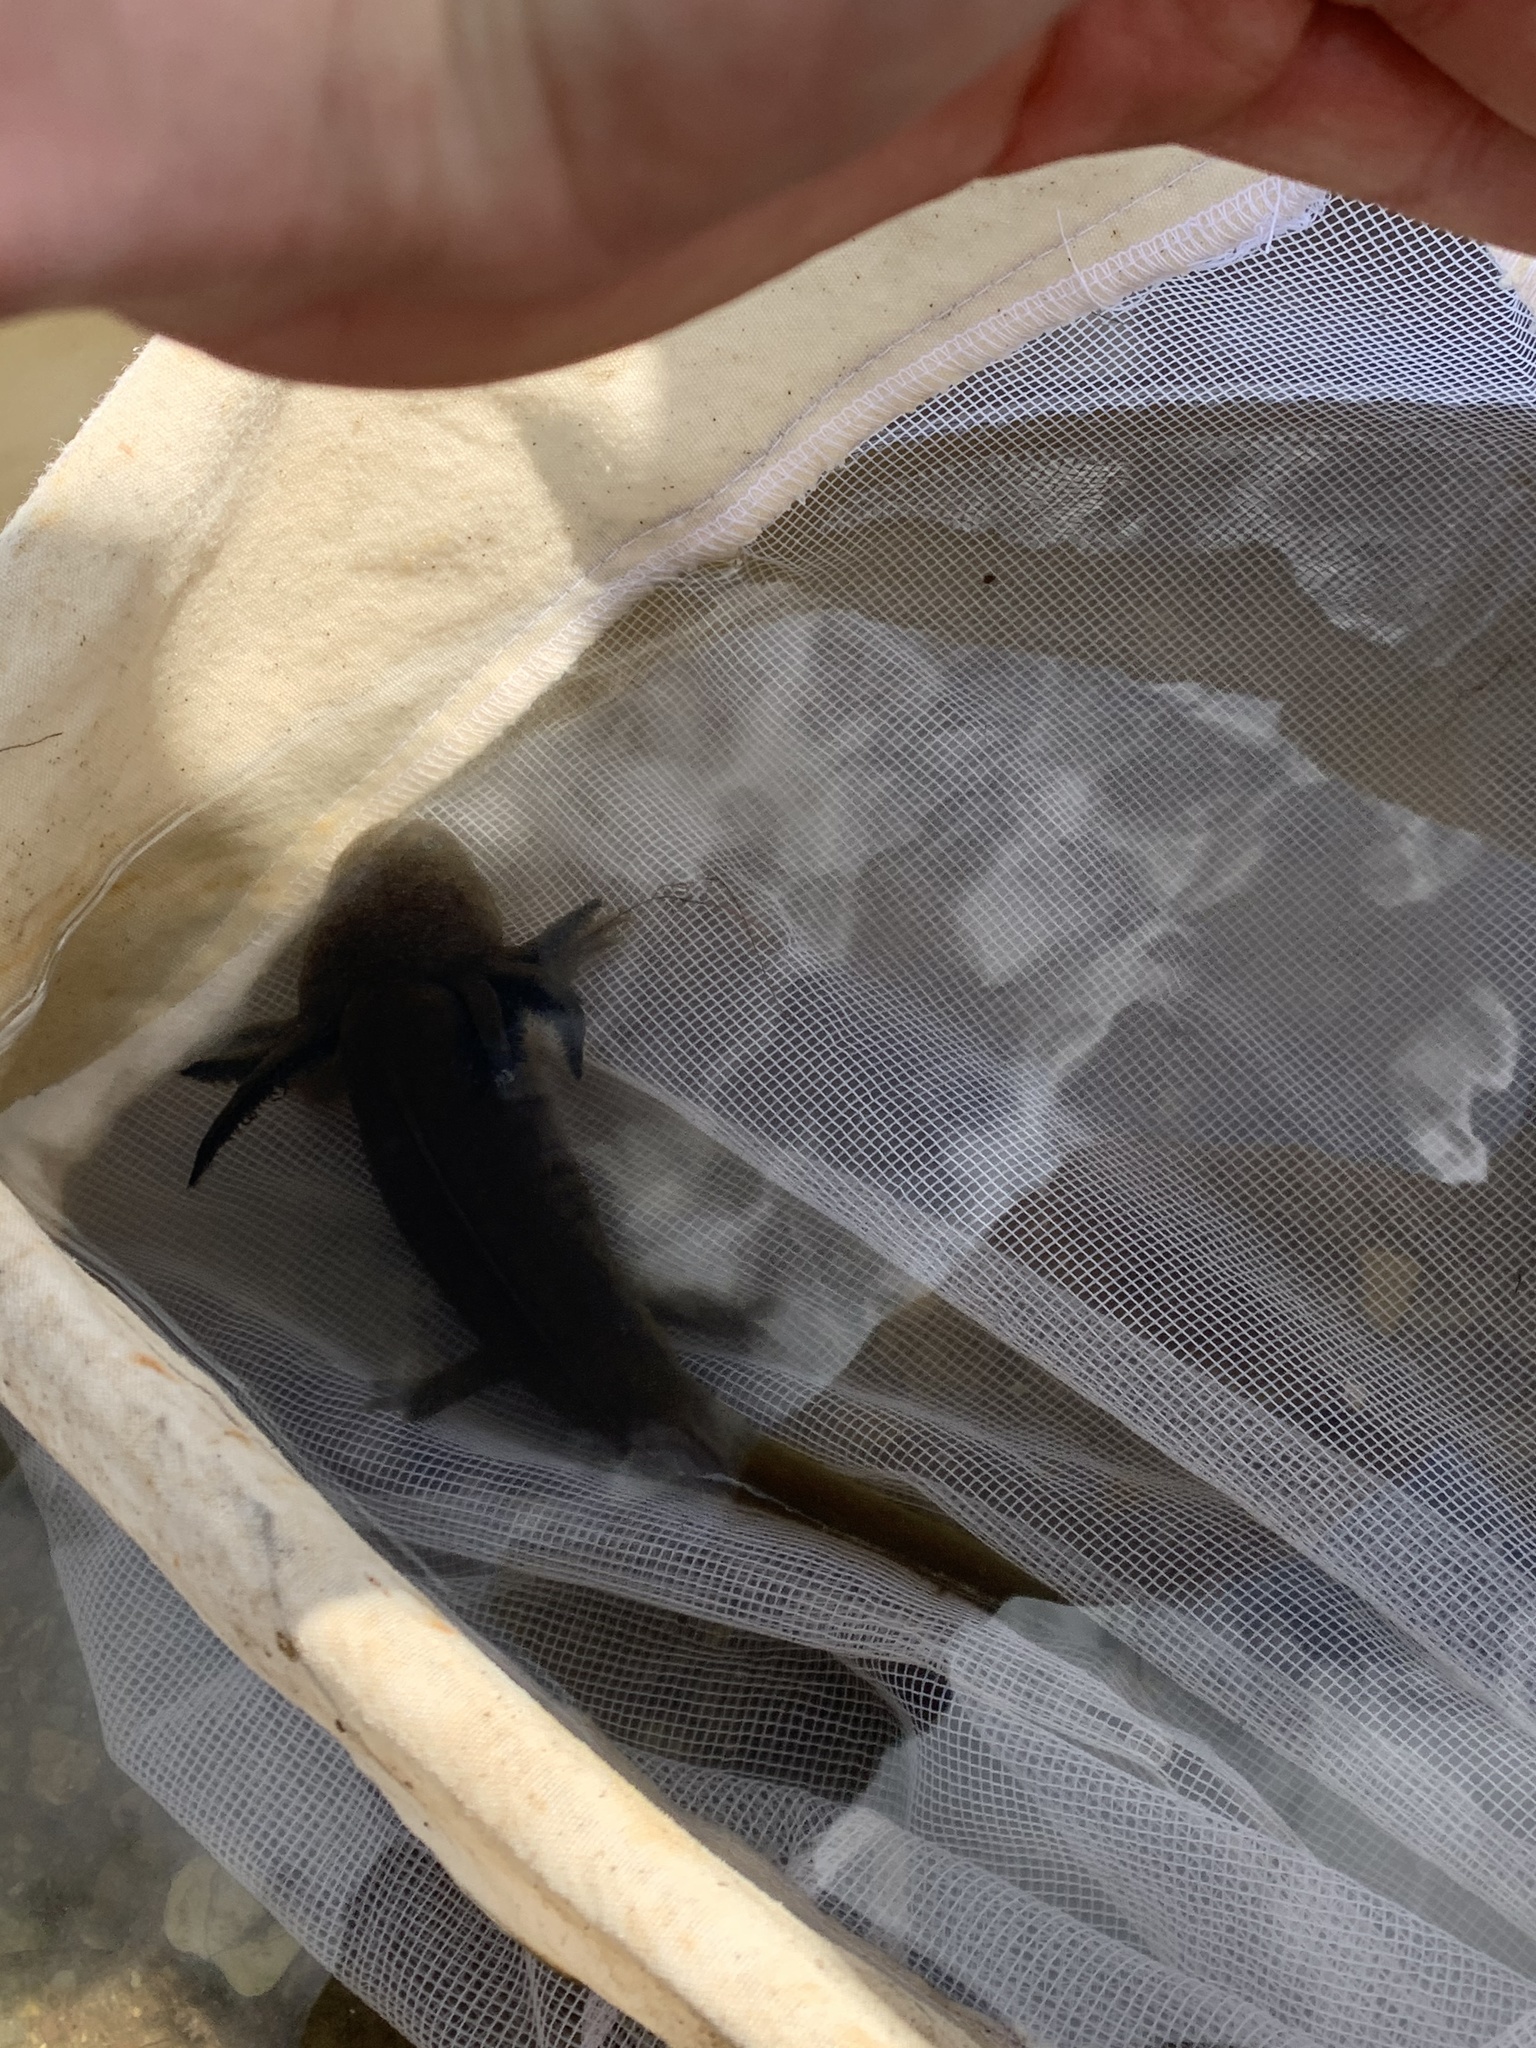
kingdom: Animalia
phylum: Chordata
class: Amphibia
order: Caudata
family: Ambystomatidae
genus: Ambystoma
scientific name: Ambystoma mavortium
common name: Western tiger salamander
